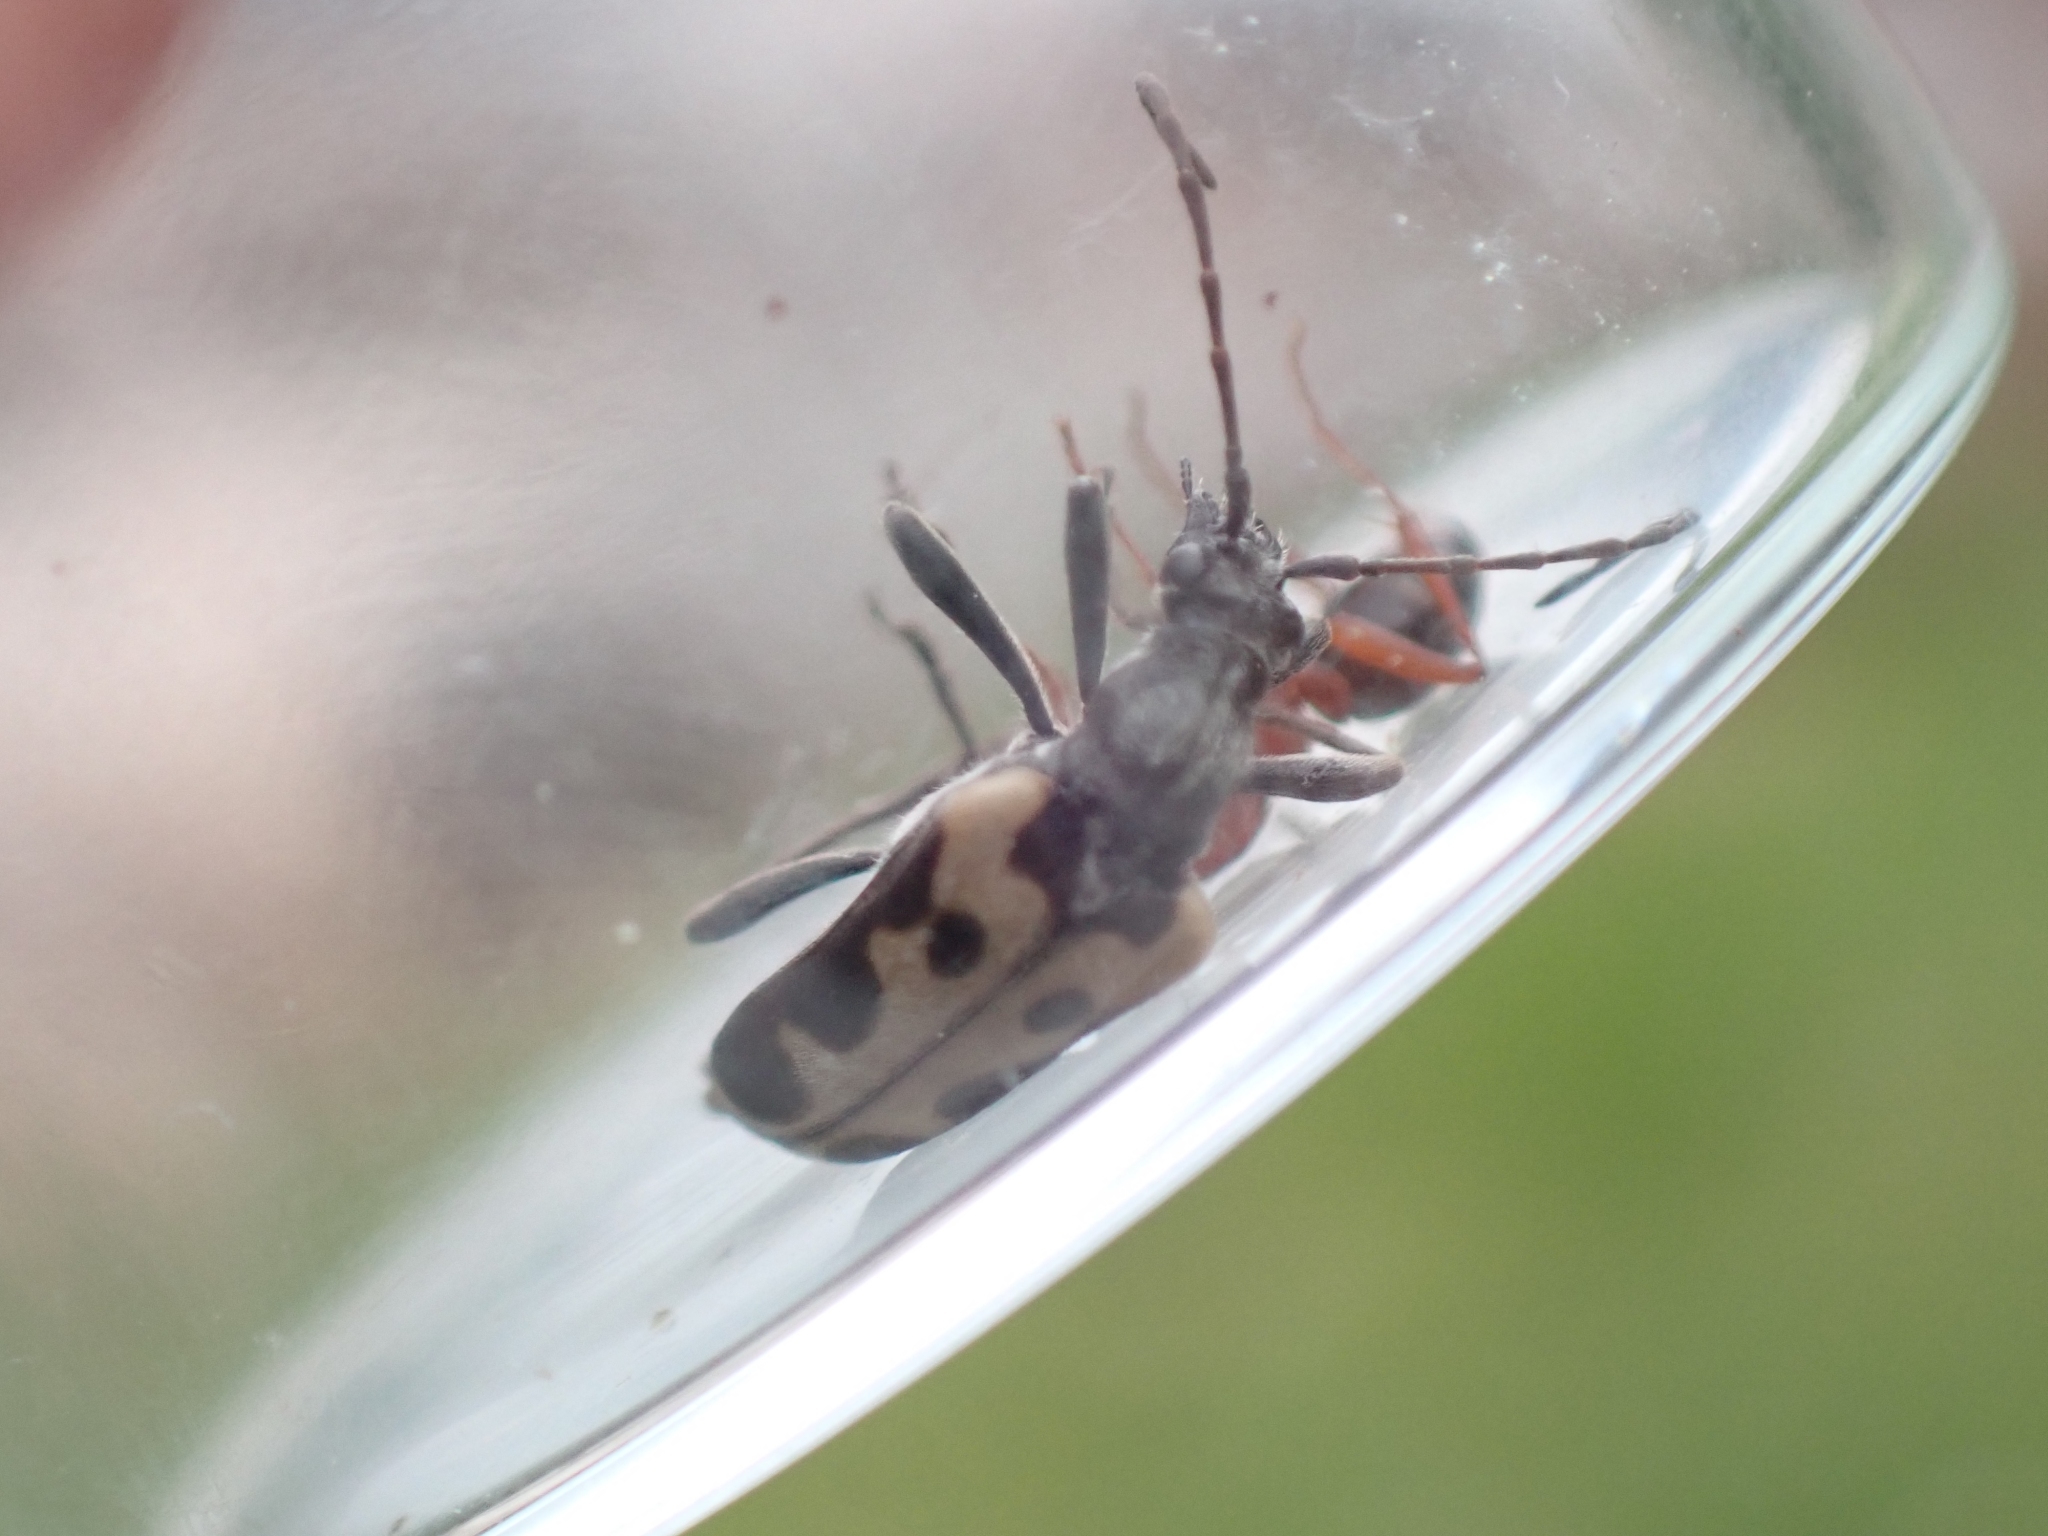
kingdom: Animalia
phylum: Arthropoda
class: Insecta
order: Coleoptera
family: Cerambycidae
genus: Evodinus
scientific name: Evodinus monticola
